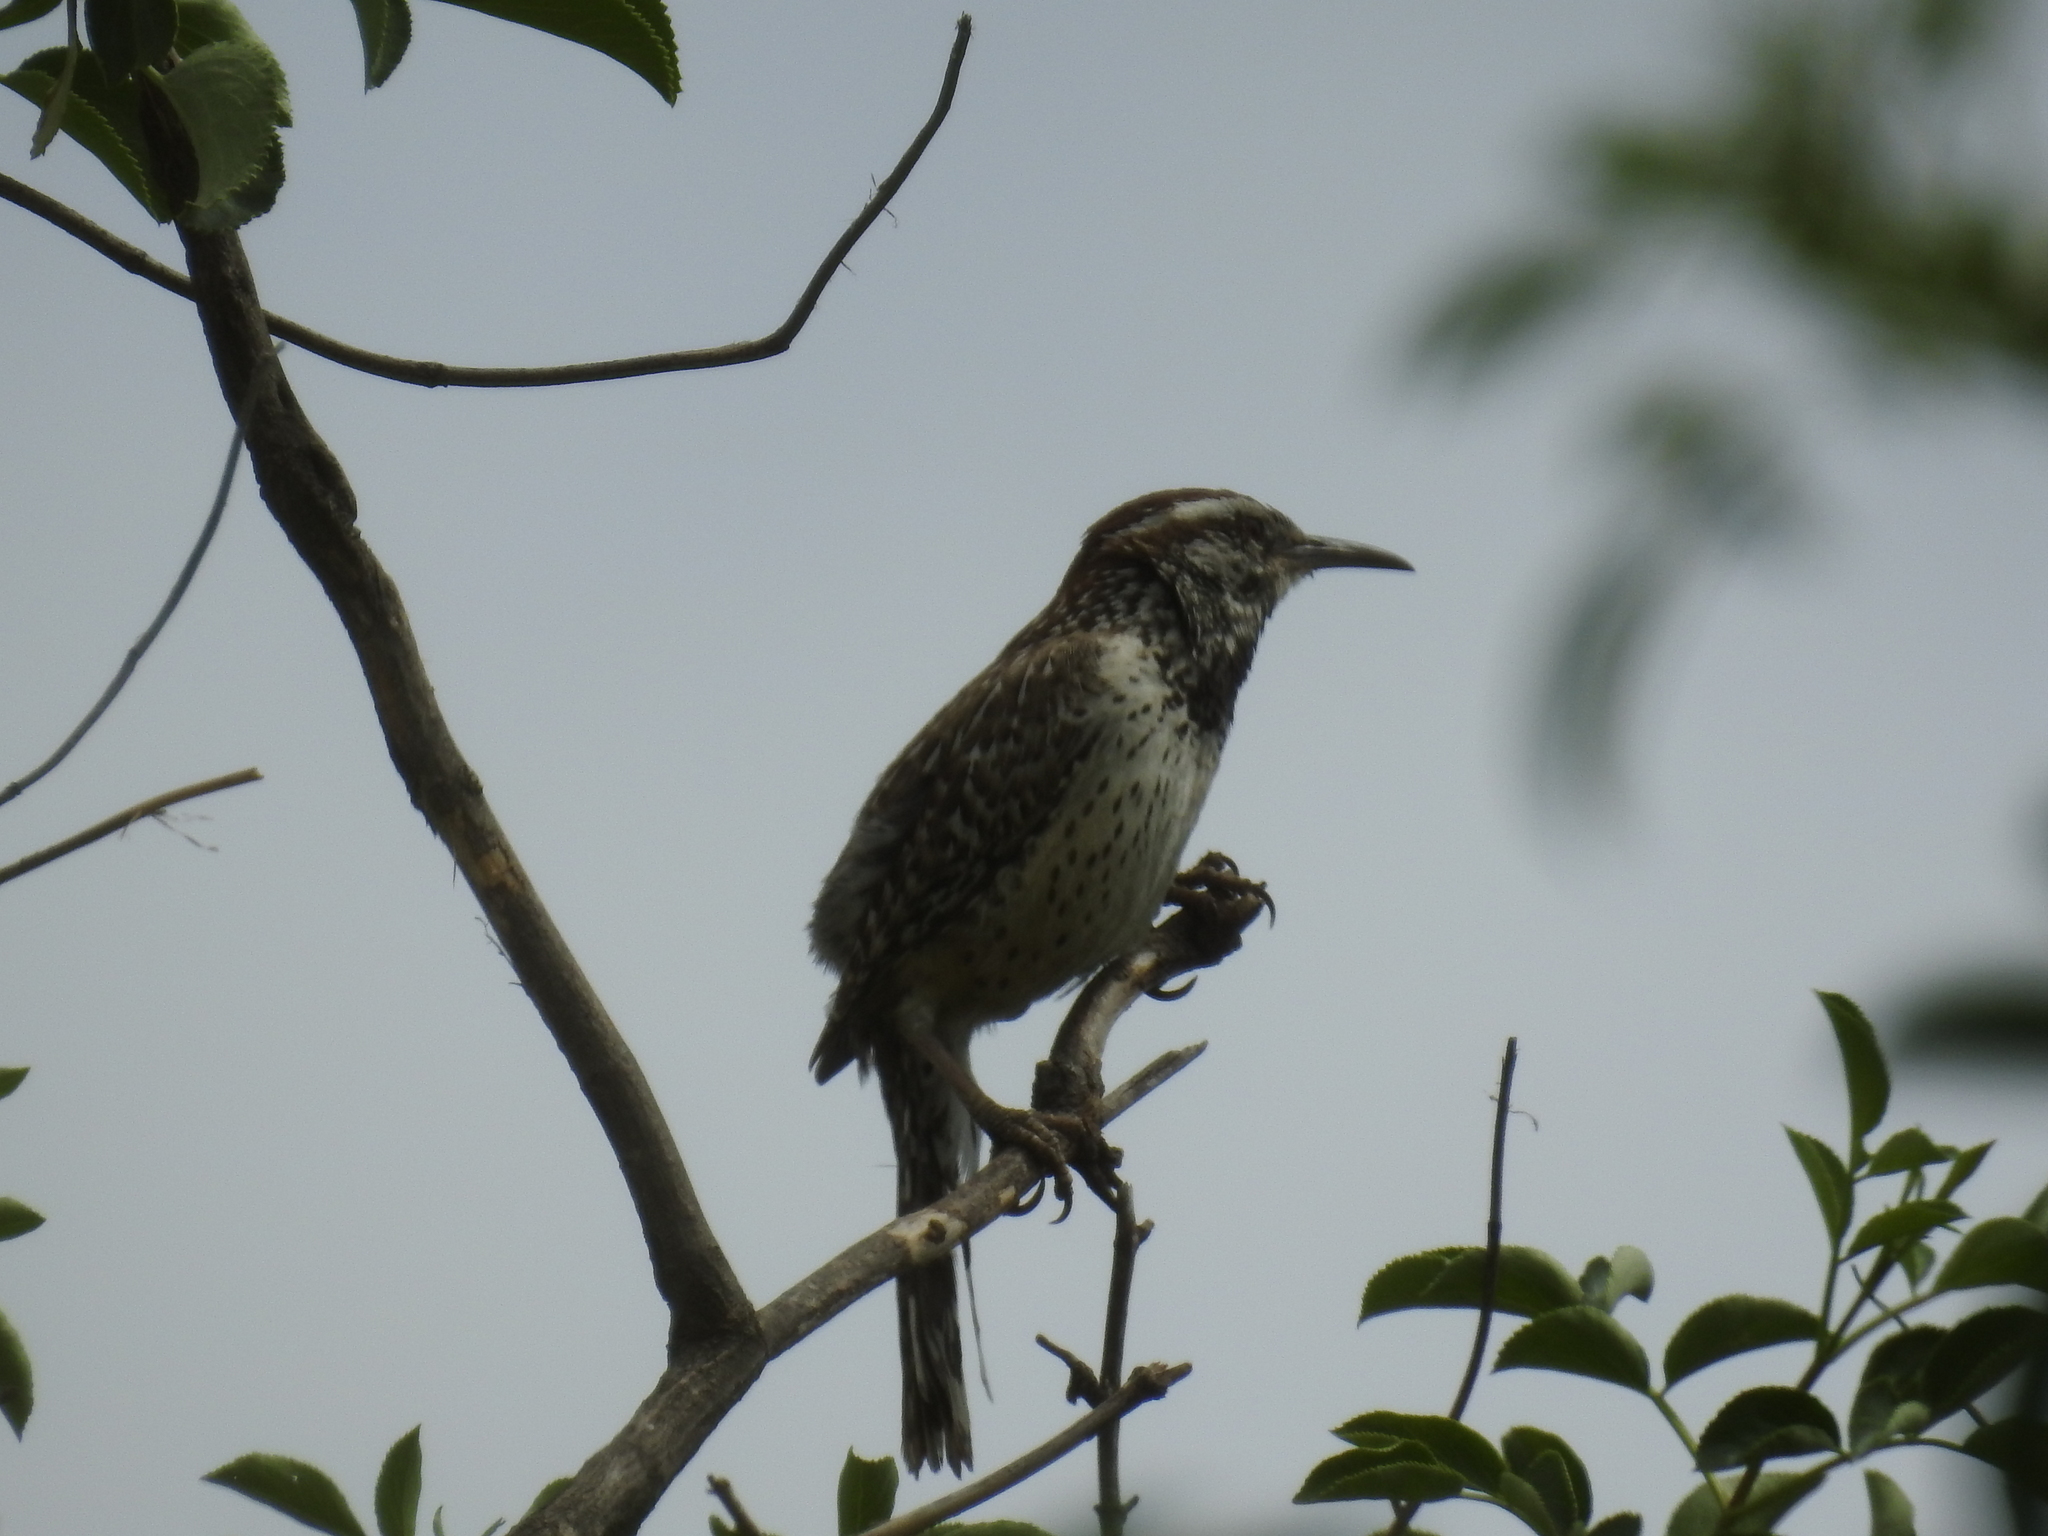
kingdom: Animalia
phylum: Chordata
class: Aves
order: Passeriformes
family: Troglodytidae
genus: Campylorhynchus
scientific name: Campylorhynchus brunneicapillus
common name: Cactus wren
